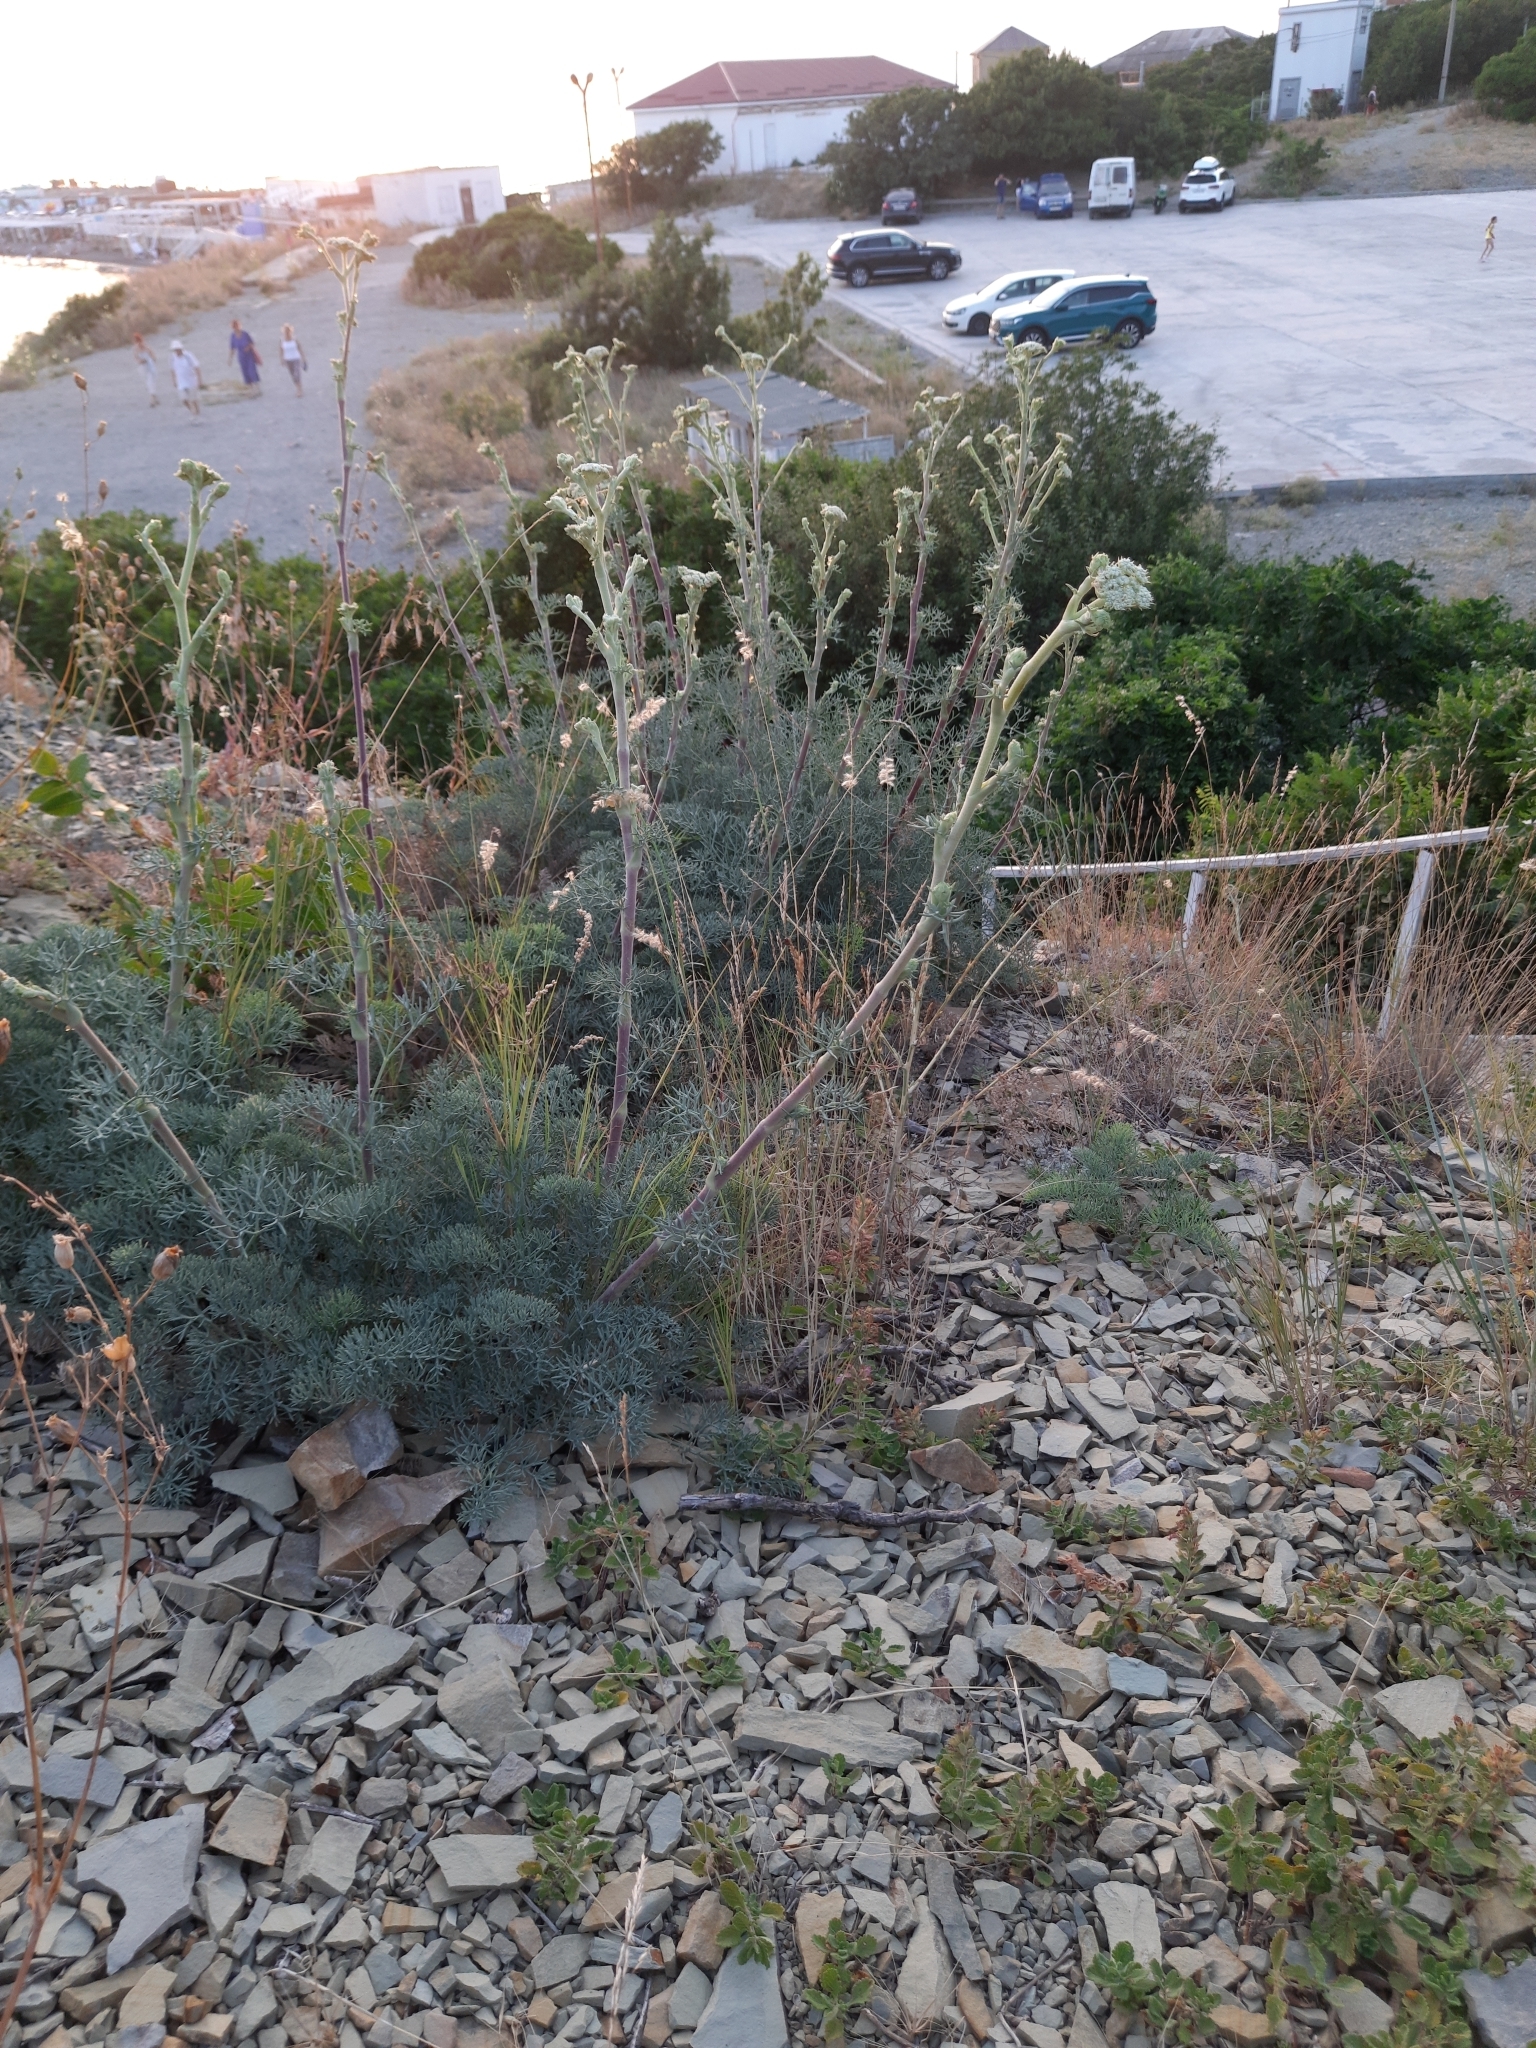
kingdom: Plantae
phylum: Tracheophyta
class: Magnoliopsida
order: Apiales
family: Apiaceae
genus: Seseli
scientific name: Seseli ponticum
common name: Pontic seseli
